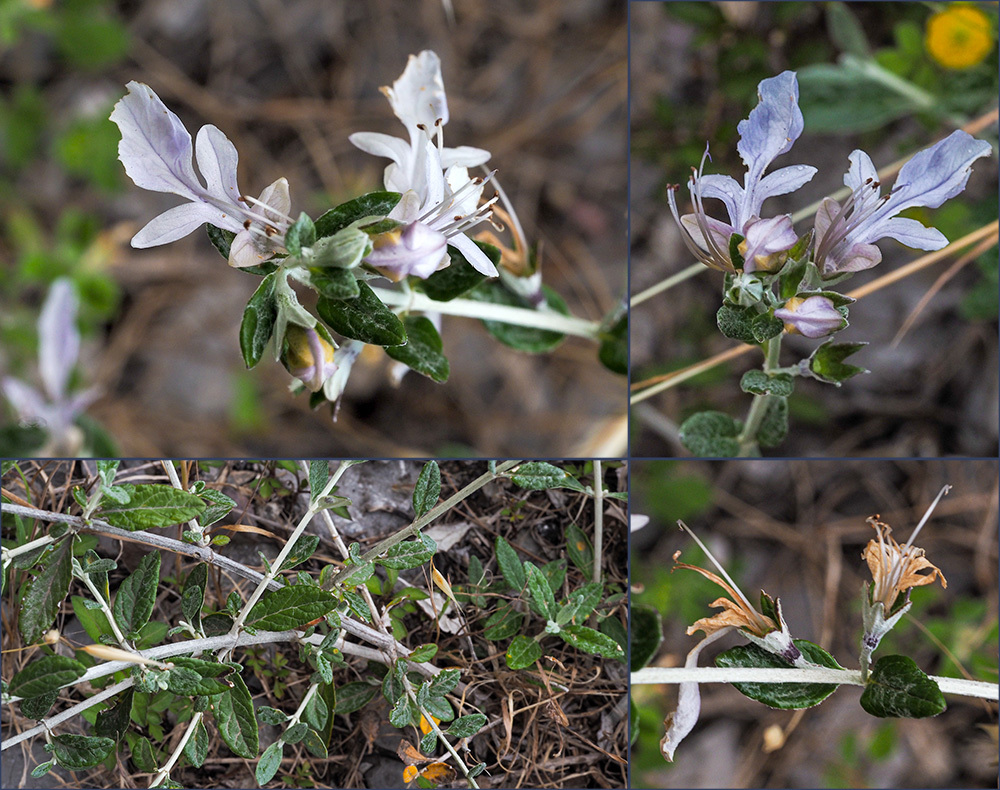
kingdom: Plantae
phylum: Tracheophyta
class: Magnoliopsida
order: Lamiales
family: Lamiaceae
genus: Teucrium
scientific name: Teucrium fruticans
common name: Shrubby germander
